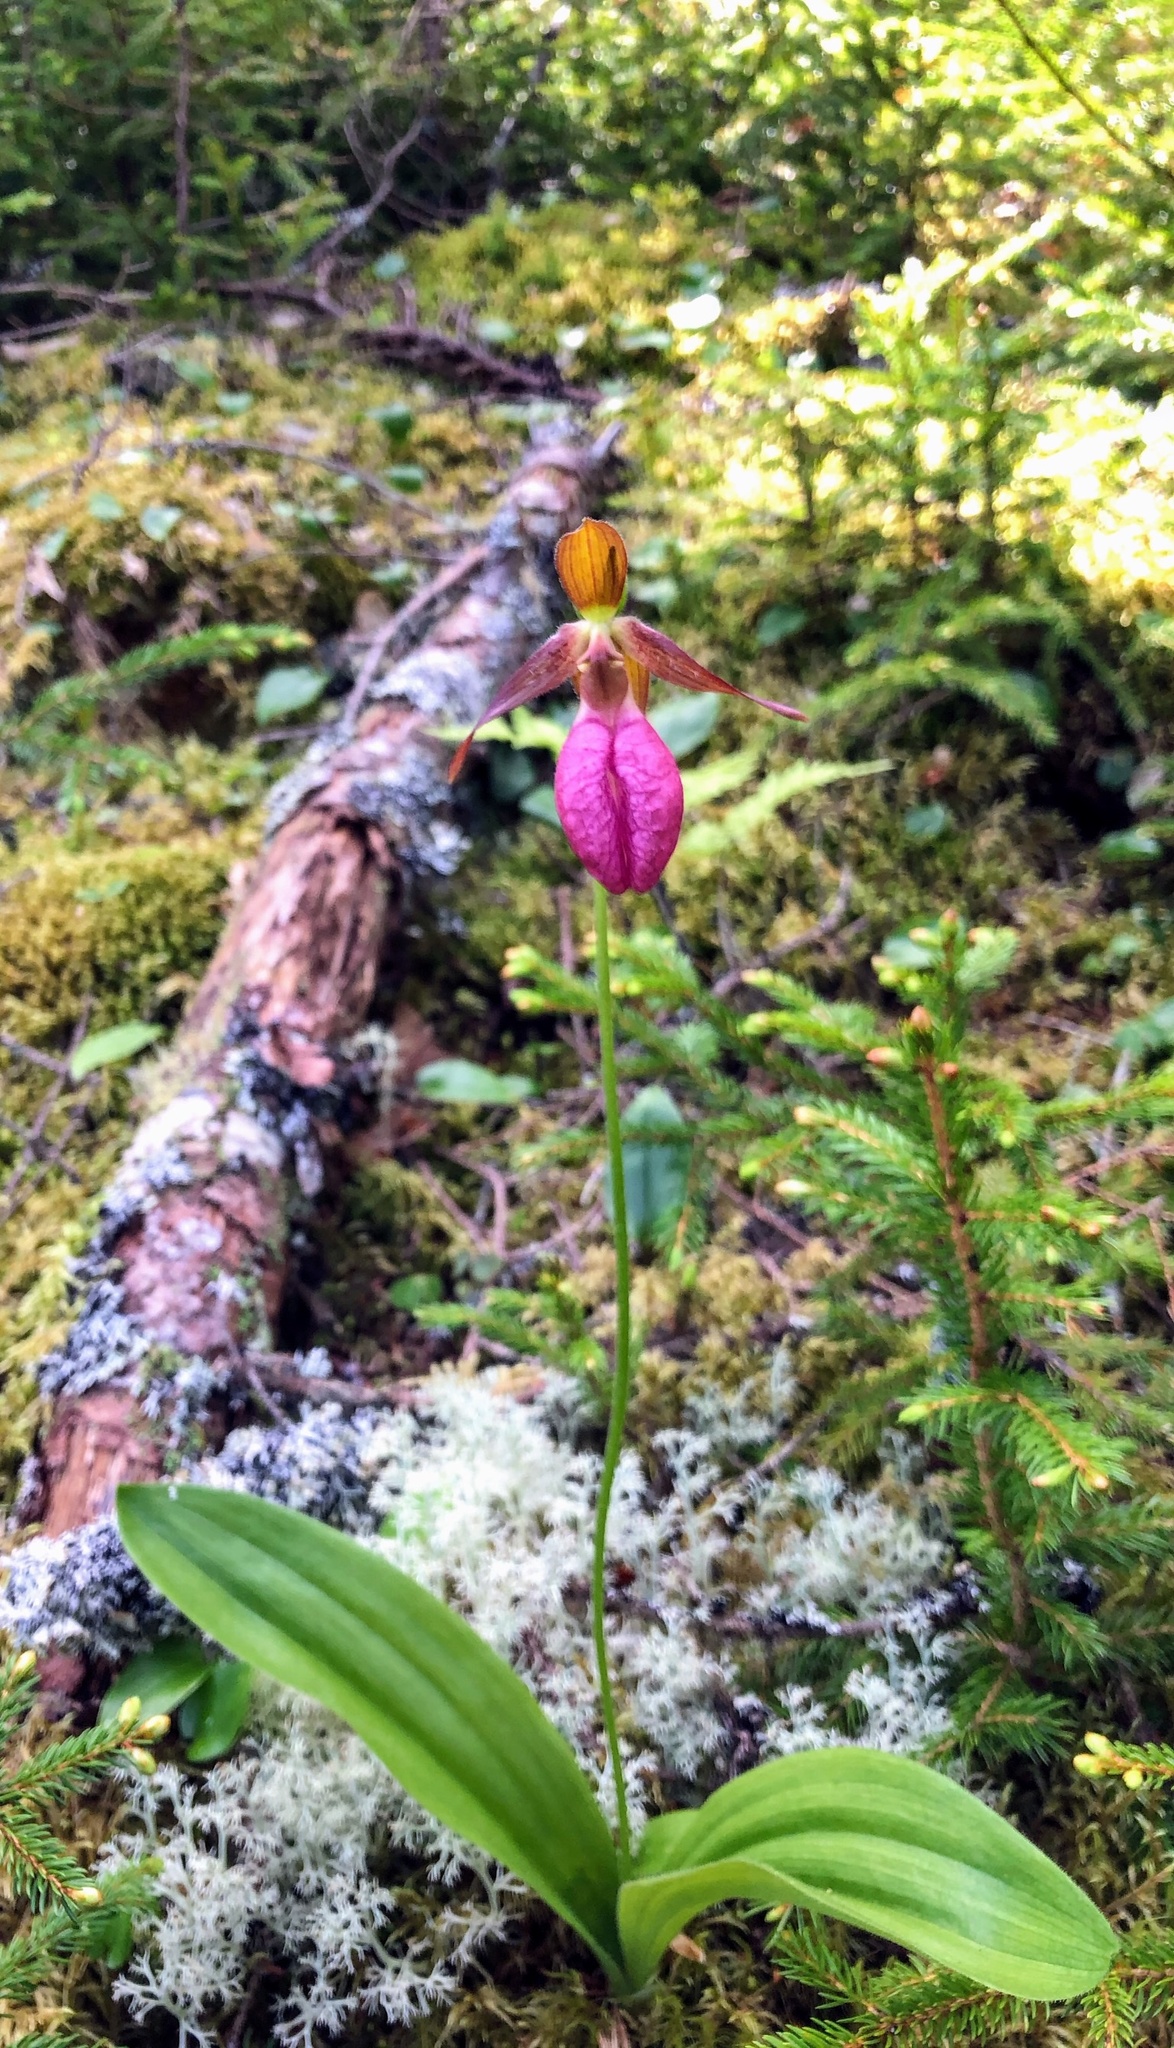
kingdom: Plantae
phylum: Tracheophyta
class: Liliopsida
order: Asparagales
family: Orchidaceae
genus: Cypripedium
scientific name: Cypripedium acaule
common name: Pink lady's-slipper
